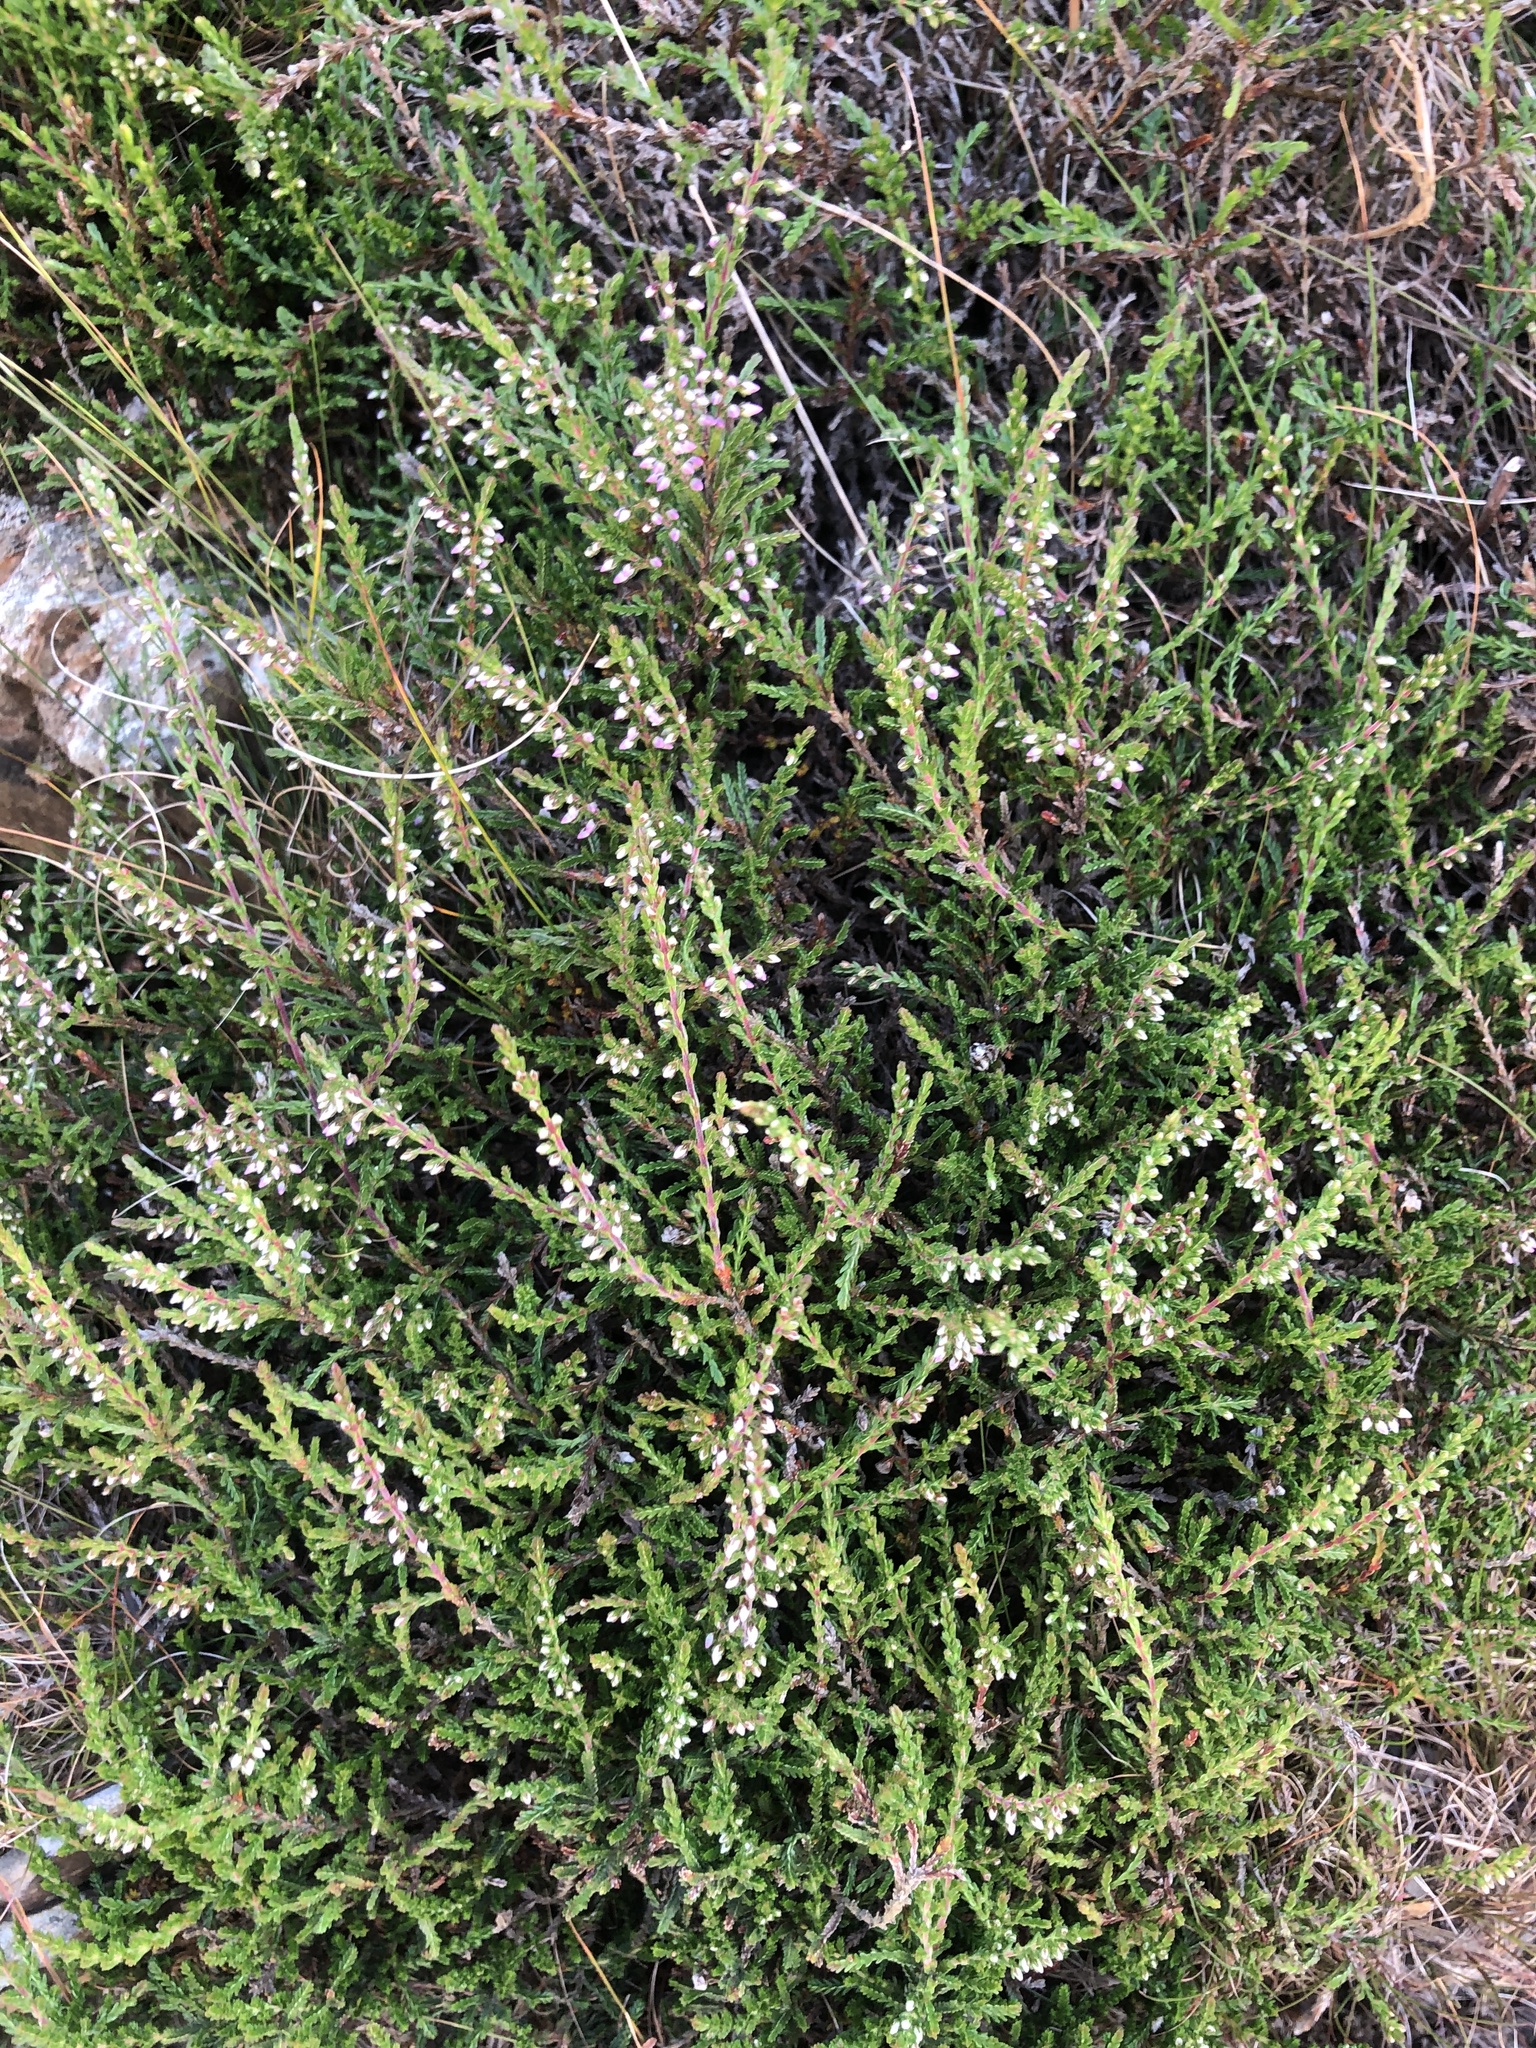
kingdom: Plantae
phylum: Tracheophyta
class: Magnoliopsida
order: Ericales
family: Ericaceae
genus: Calluna
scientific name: Calluna vulgaris
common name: Heather
